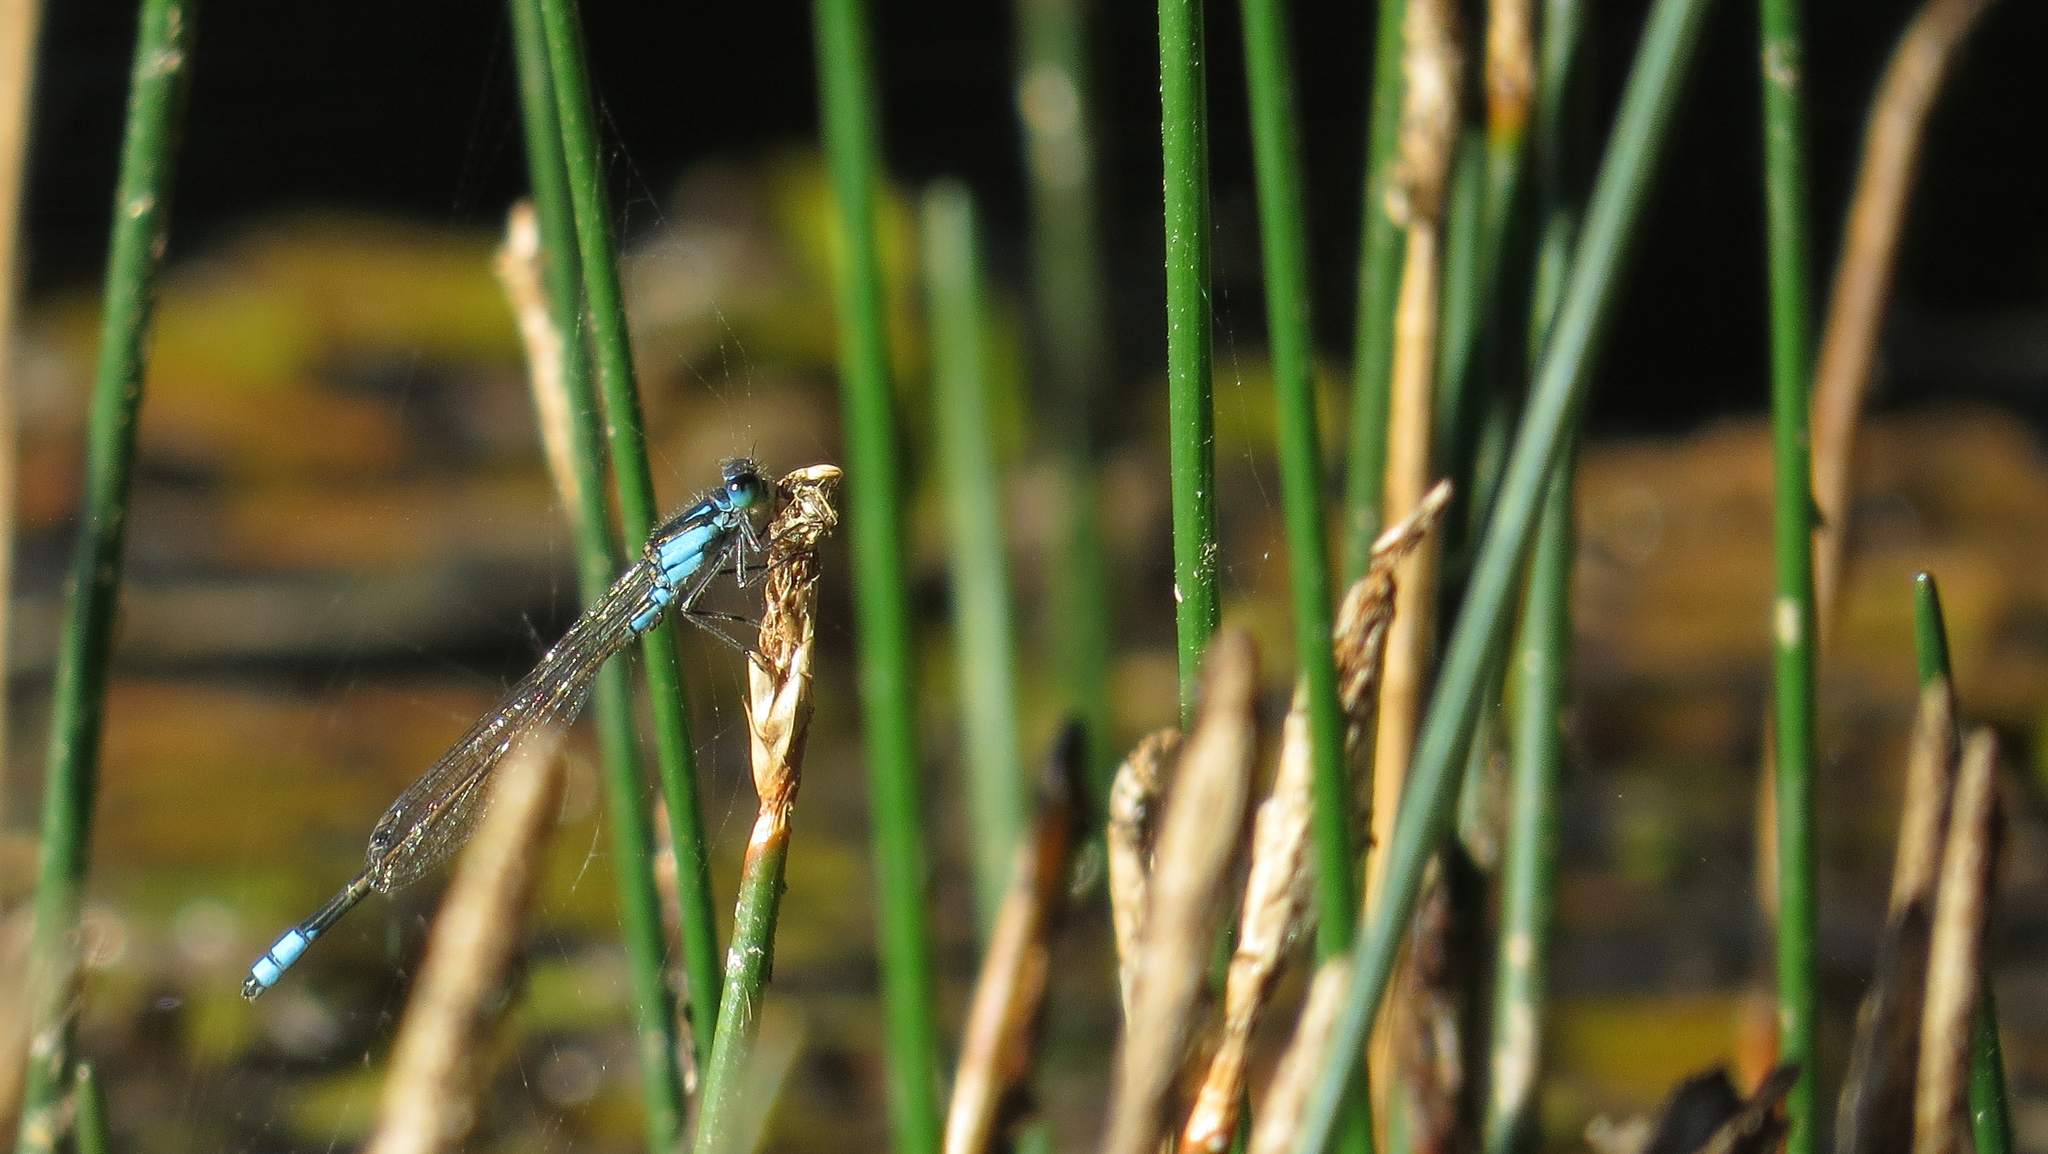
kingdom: Animalia
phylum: Arthropoda
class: Insecta
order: Odonata
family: Coenagrionidae
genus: Ischnura
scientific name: Ischnura heterosticta
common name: Common bluetail
